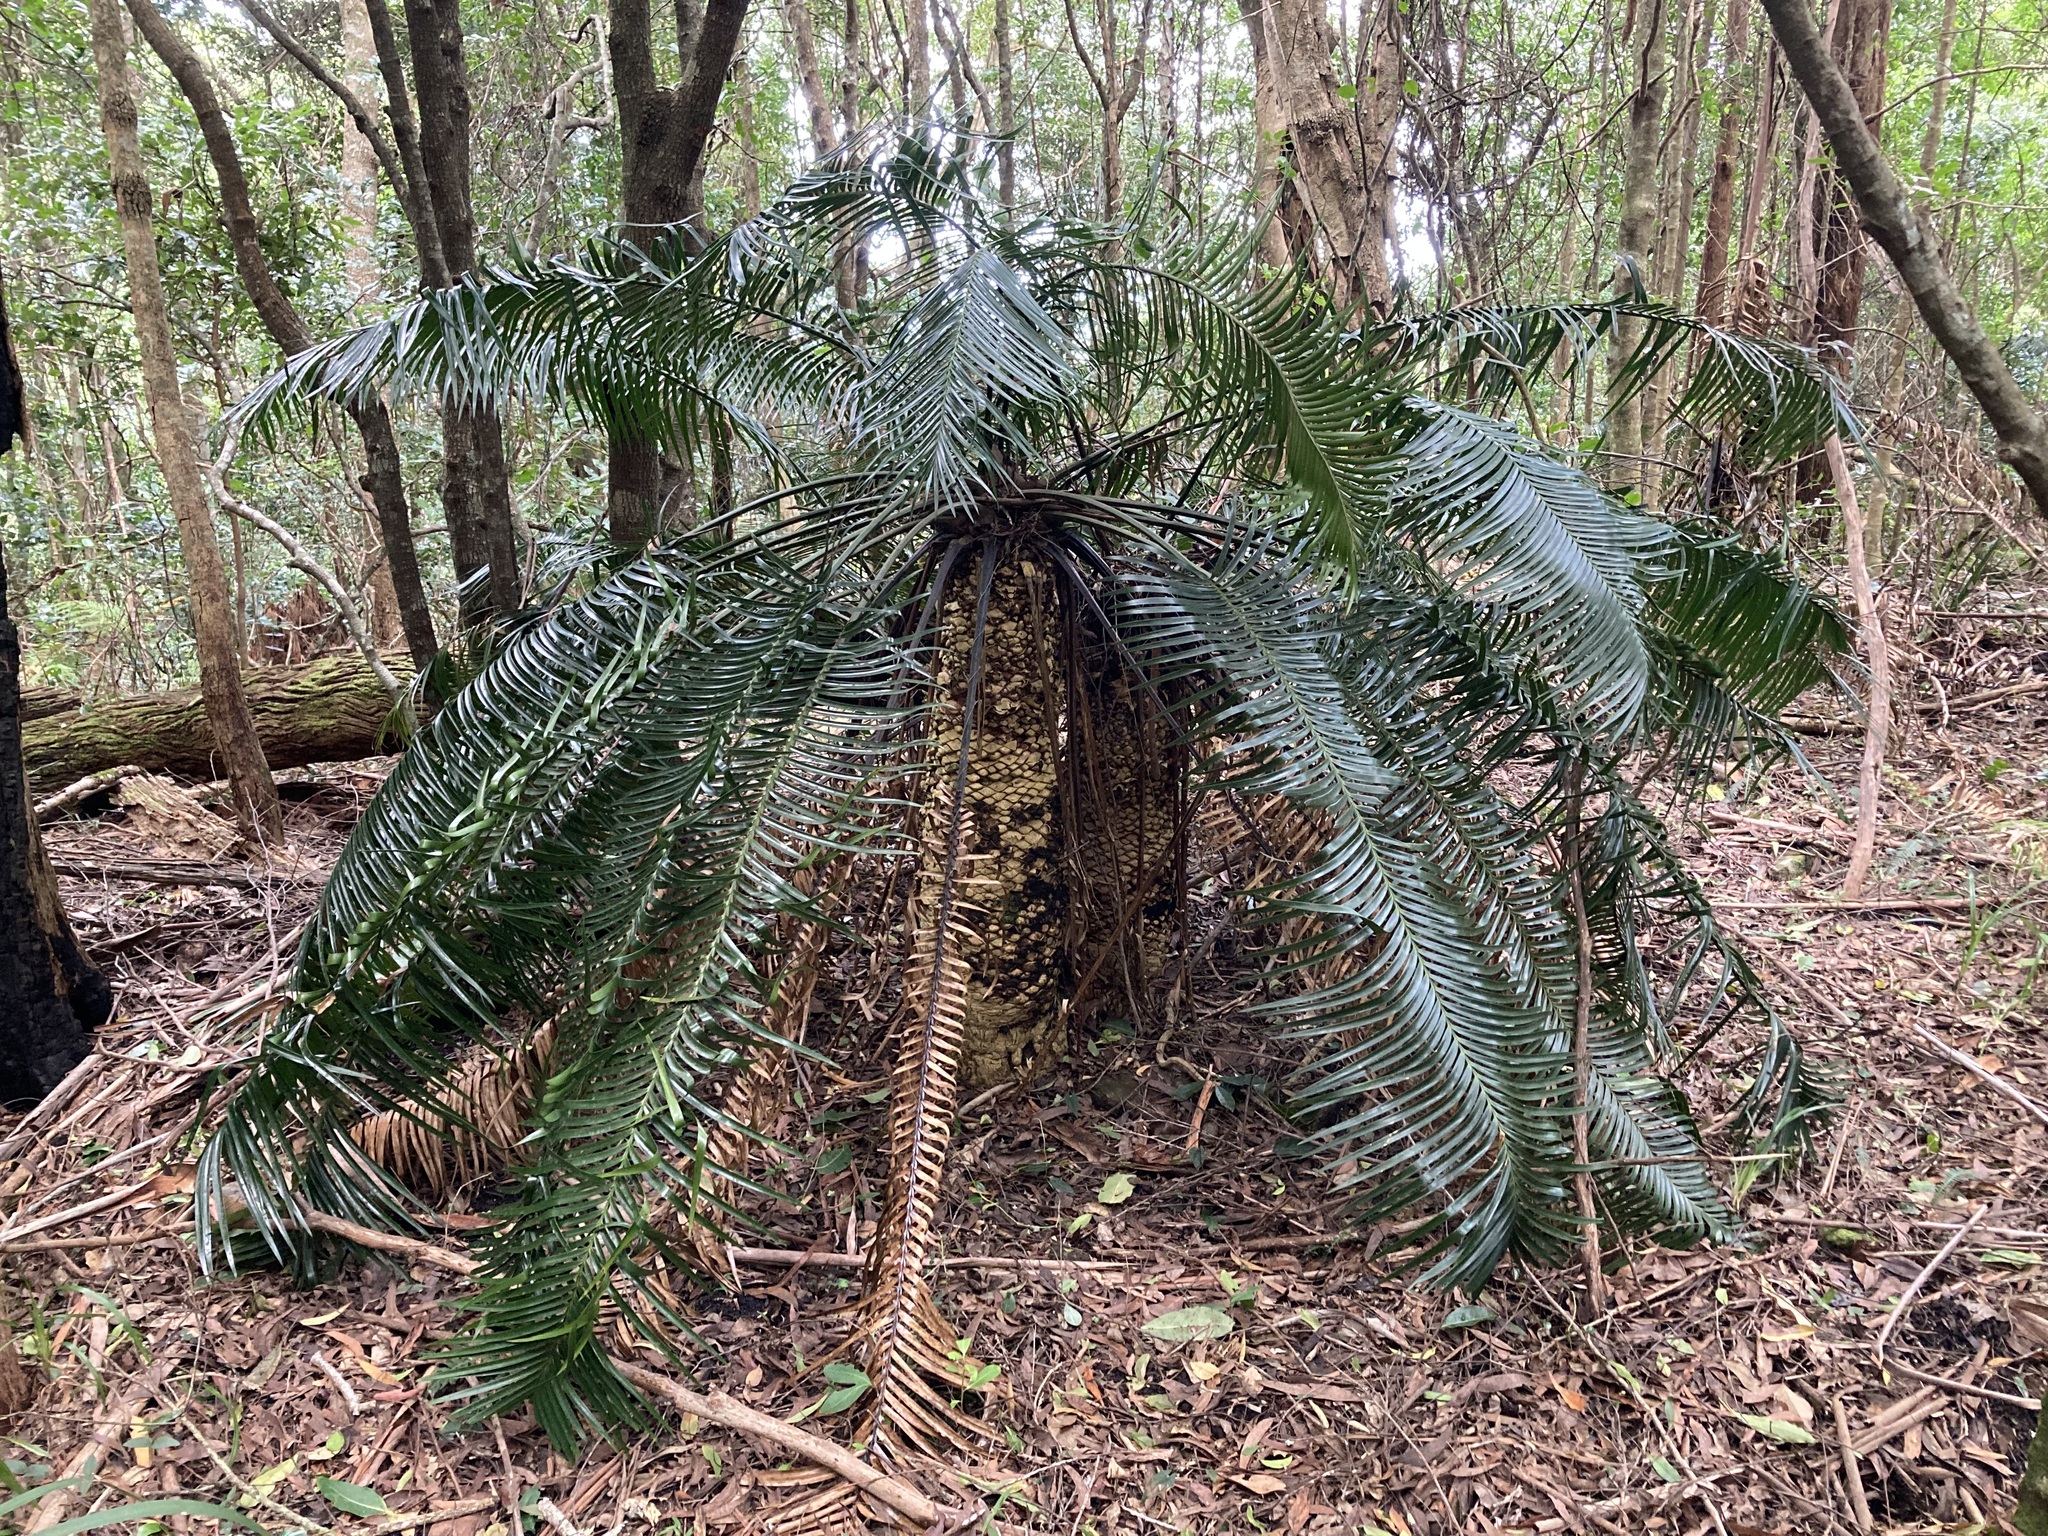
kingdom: Plantae
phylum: Tracheophyta
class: Cycadopsida
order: Cycadales
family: Zamiaceae
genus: Lepidozamia
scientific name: Lepidozamia peroffskyana
